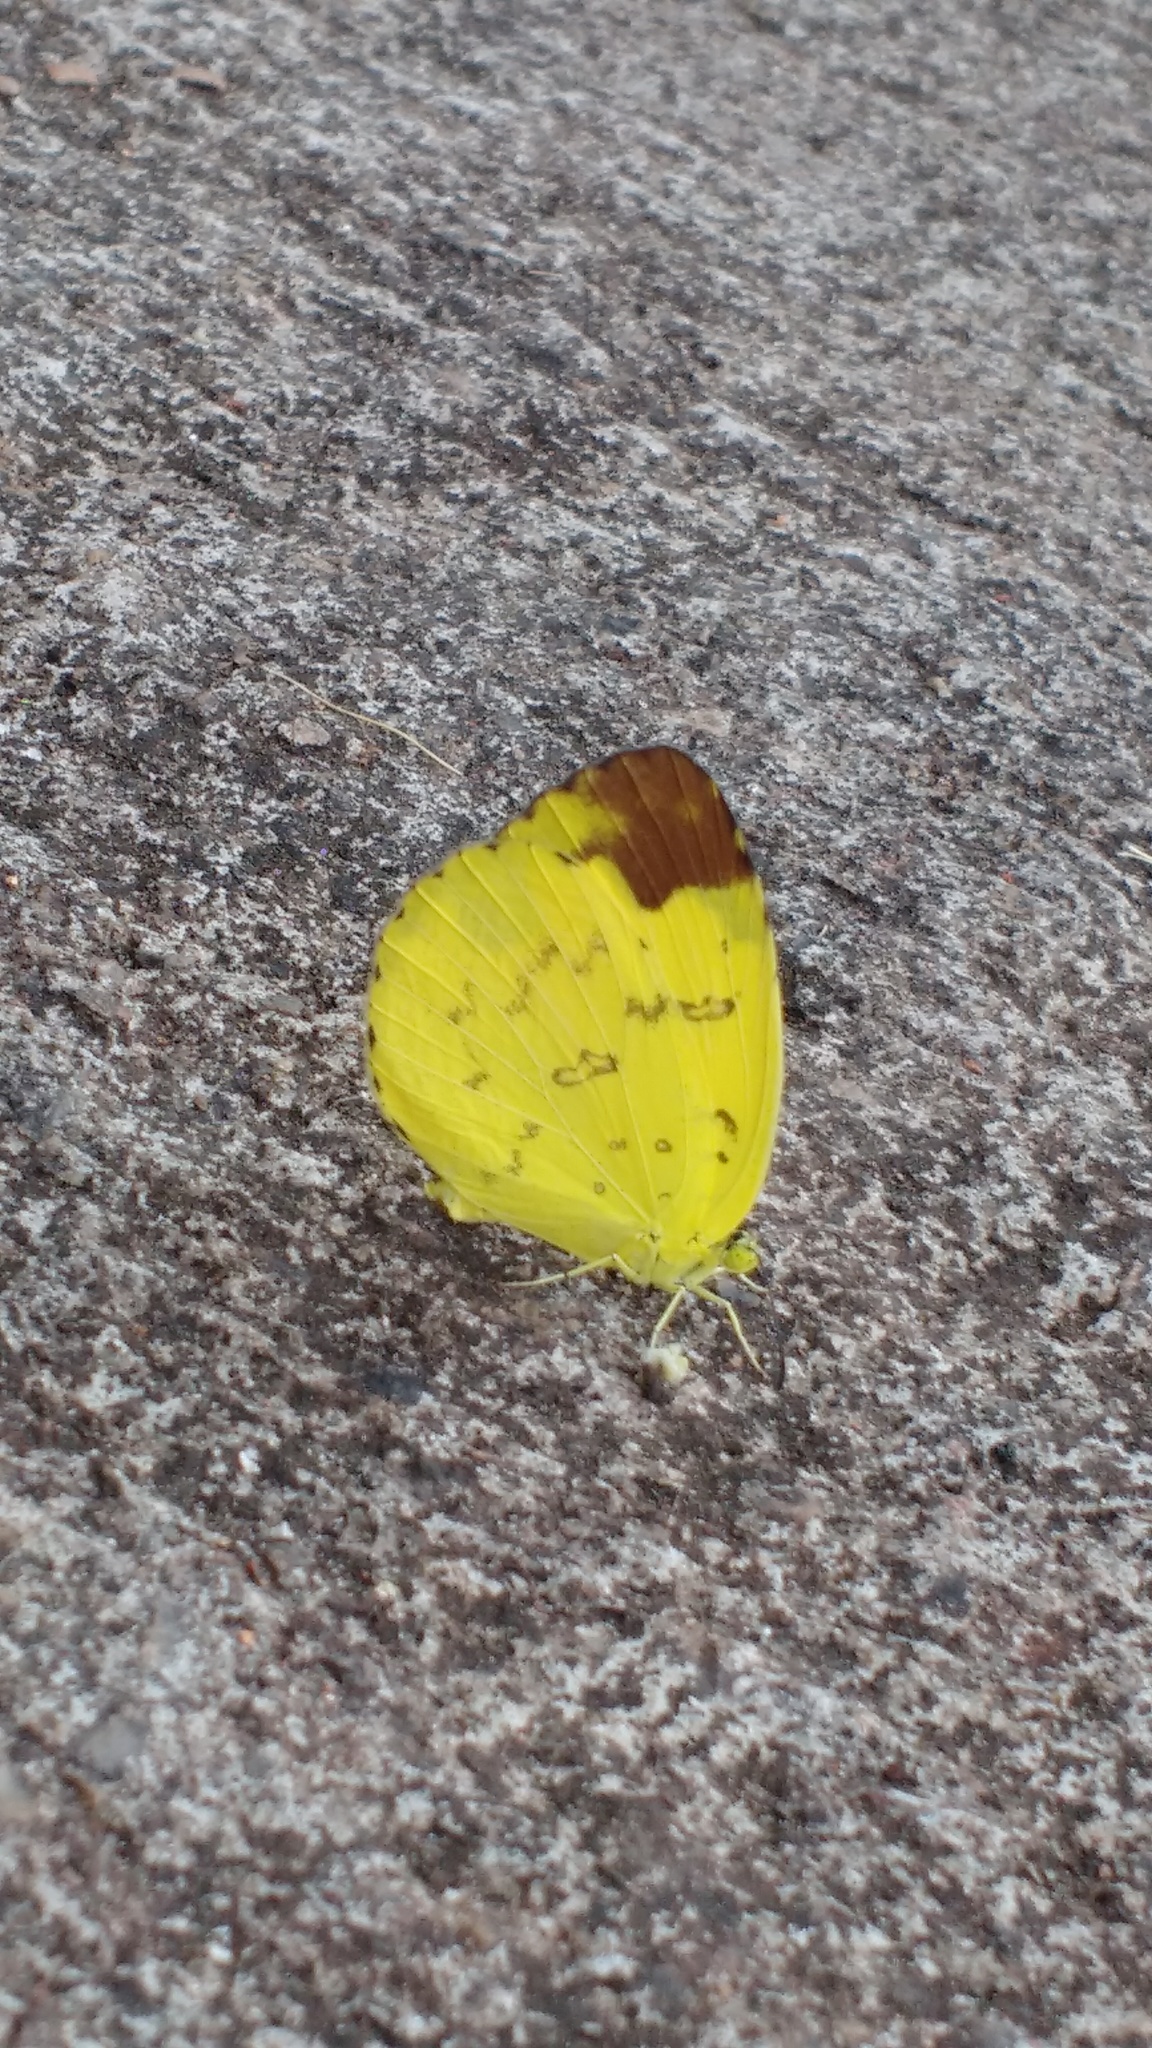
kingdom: Animalia
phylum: Arthropoda
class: Insecta
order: Lepidoptera
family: Pieridae
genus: Eurema
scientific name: Eurema blanda
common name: Three-spot grass yellow
